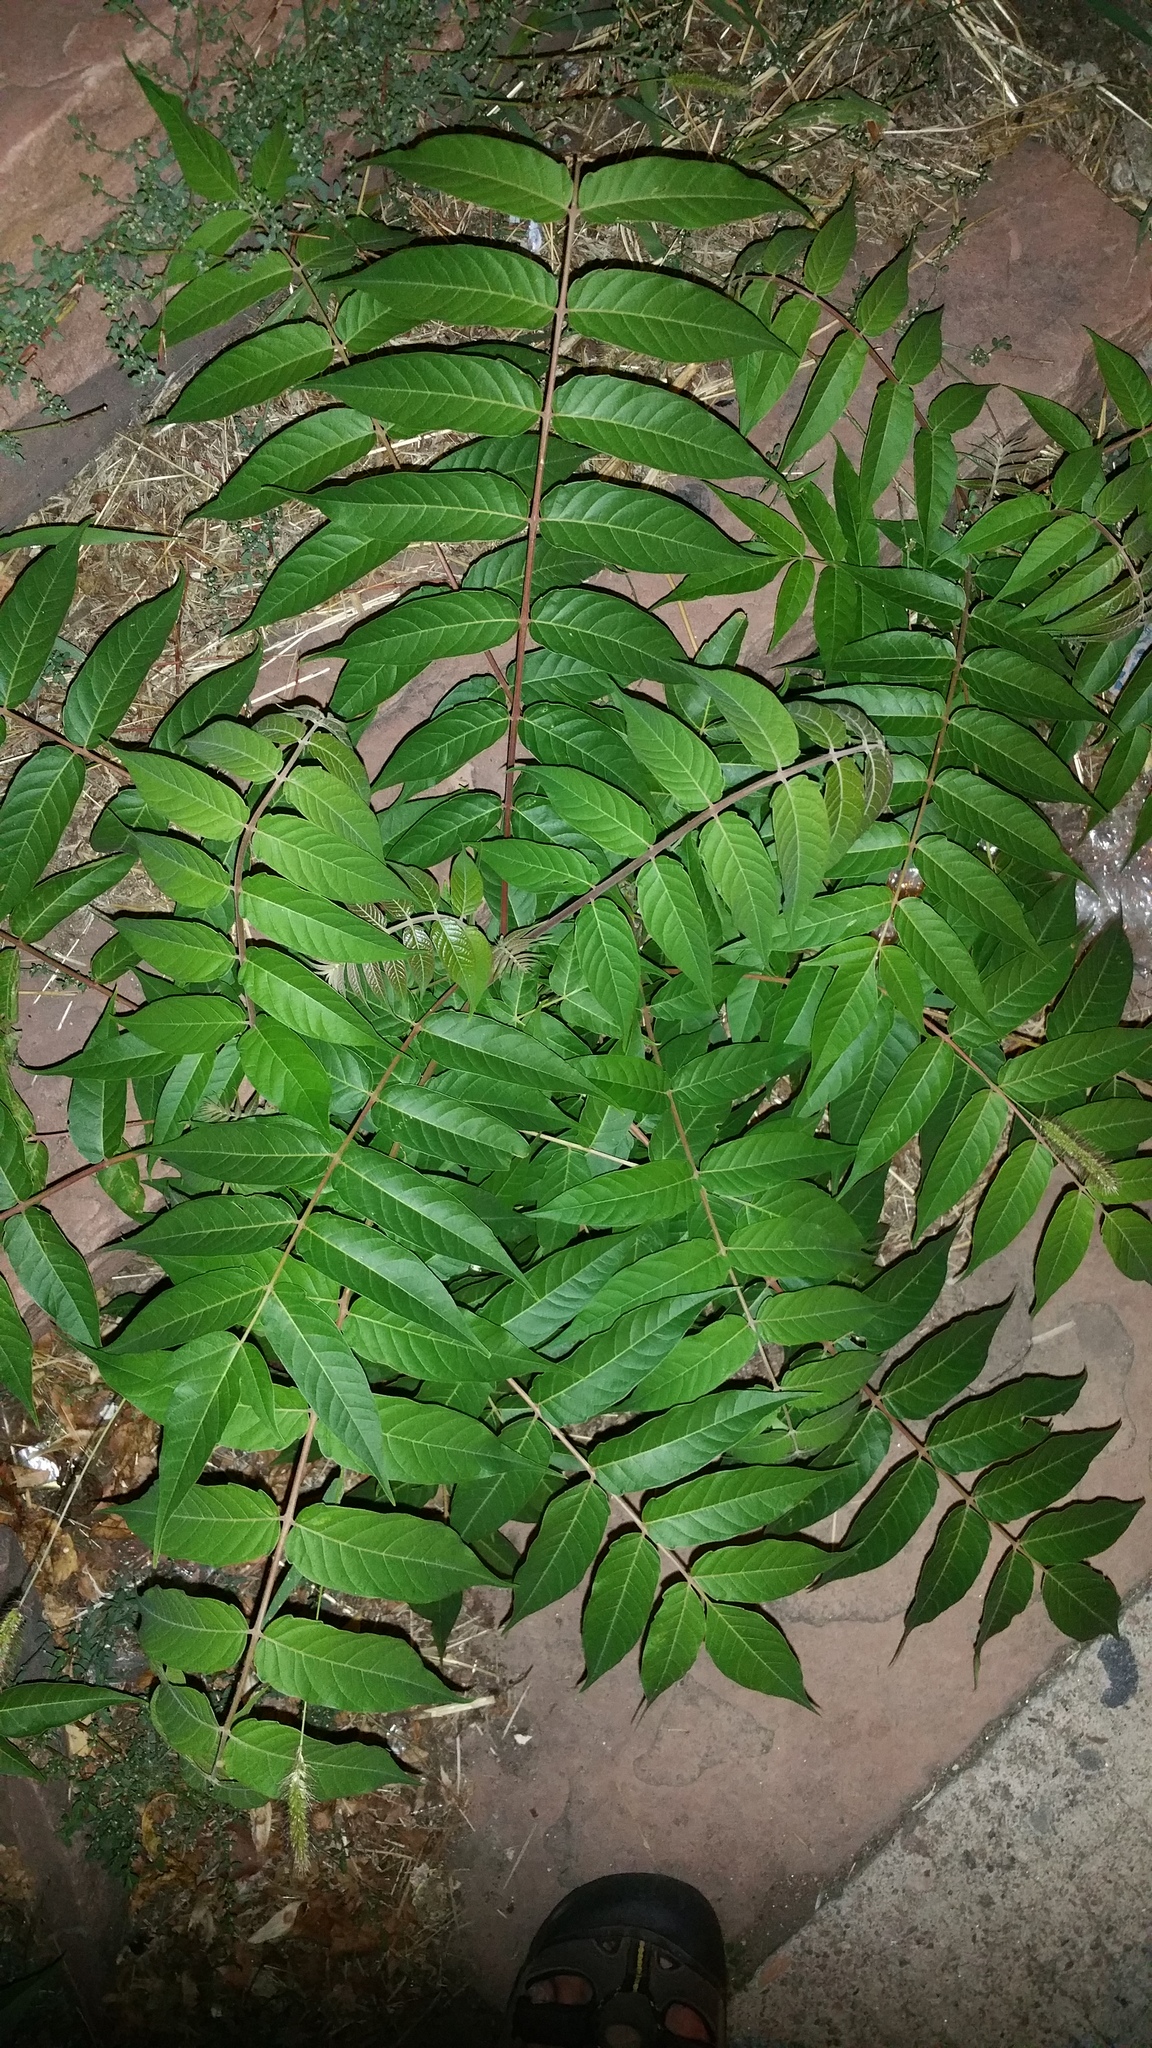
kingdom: Plantae
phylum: Tracheophyta
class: Magnoliopsida
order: Sapindales
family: Simaroubaceae
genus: Ailanthus
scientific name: Ailanthus altissima
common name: Tree-of-heaven
